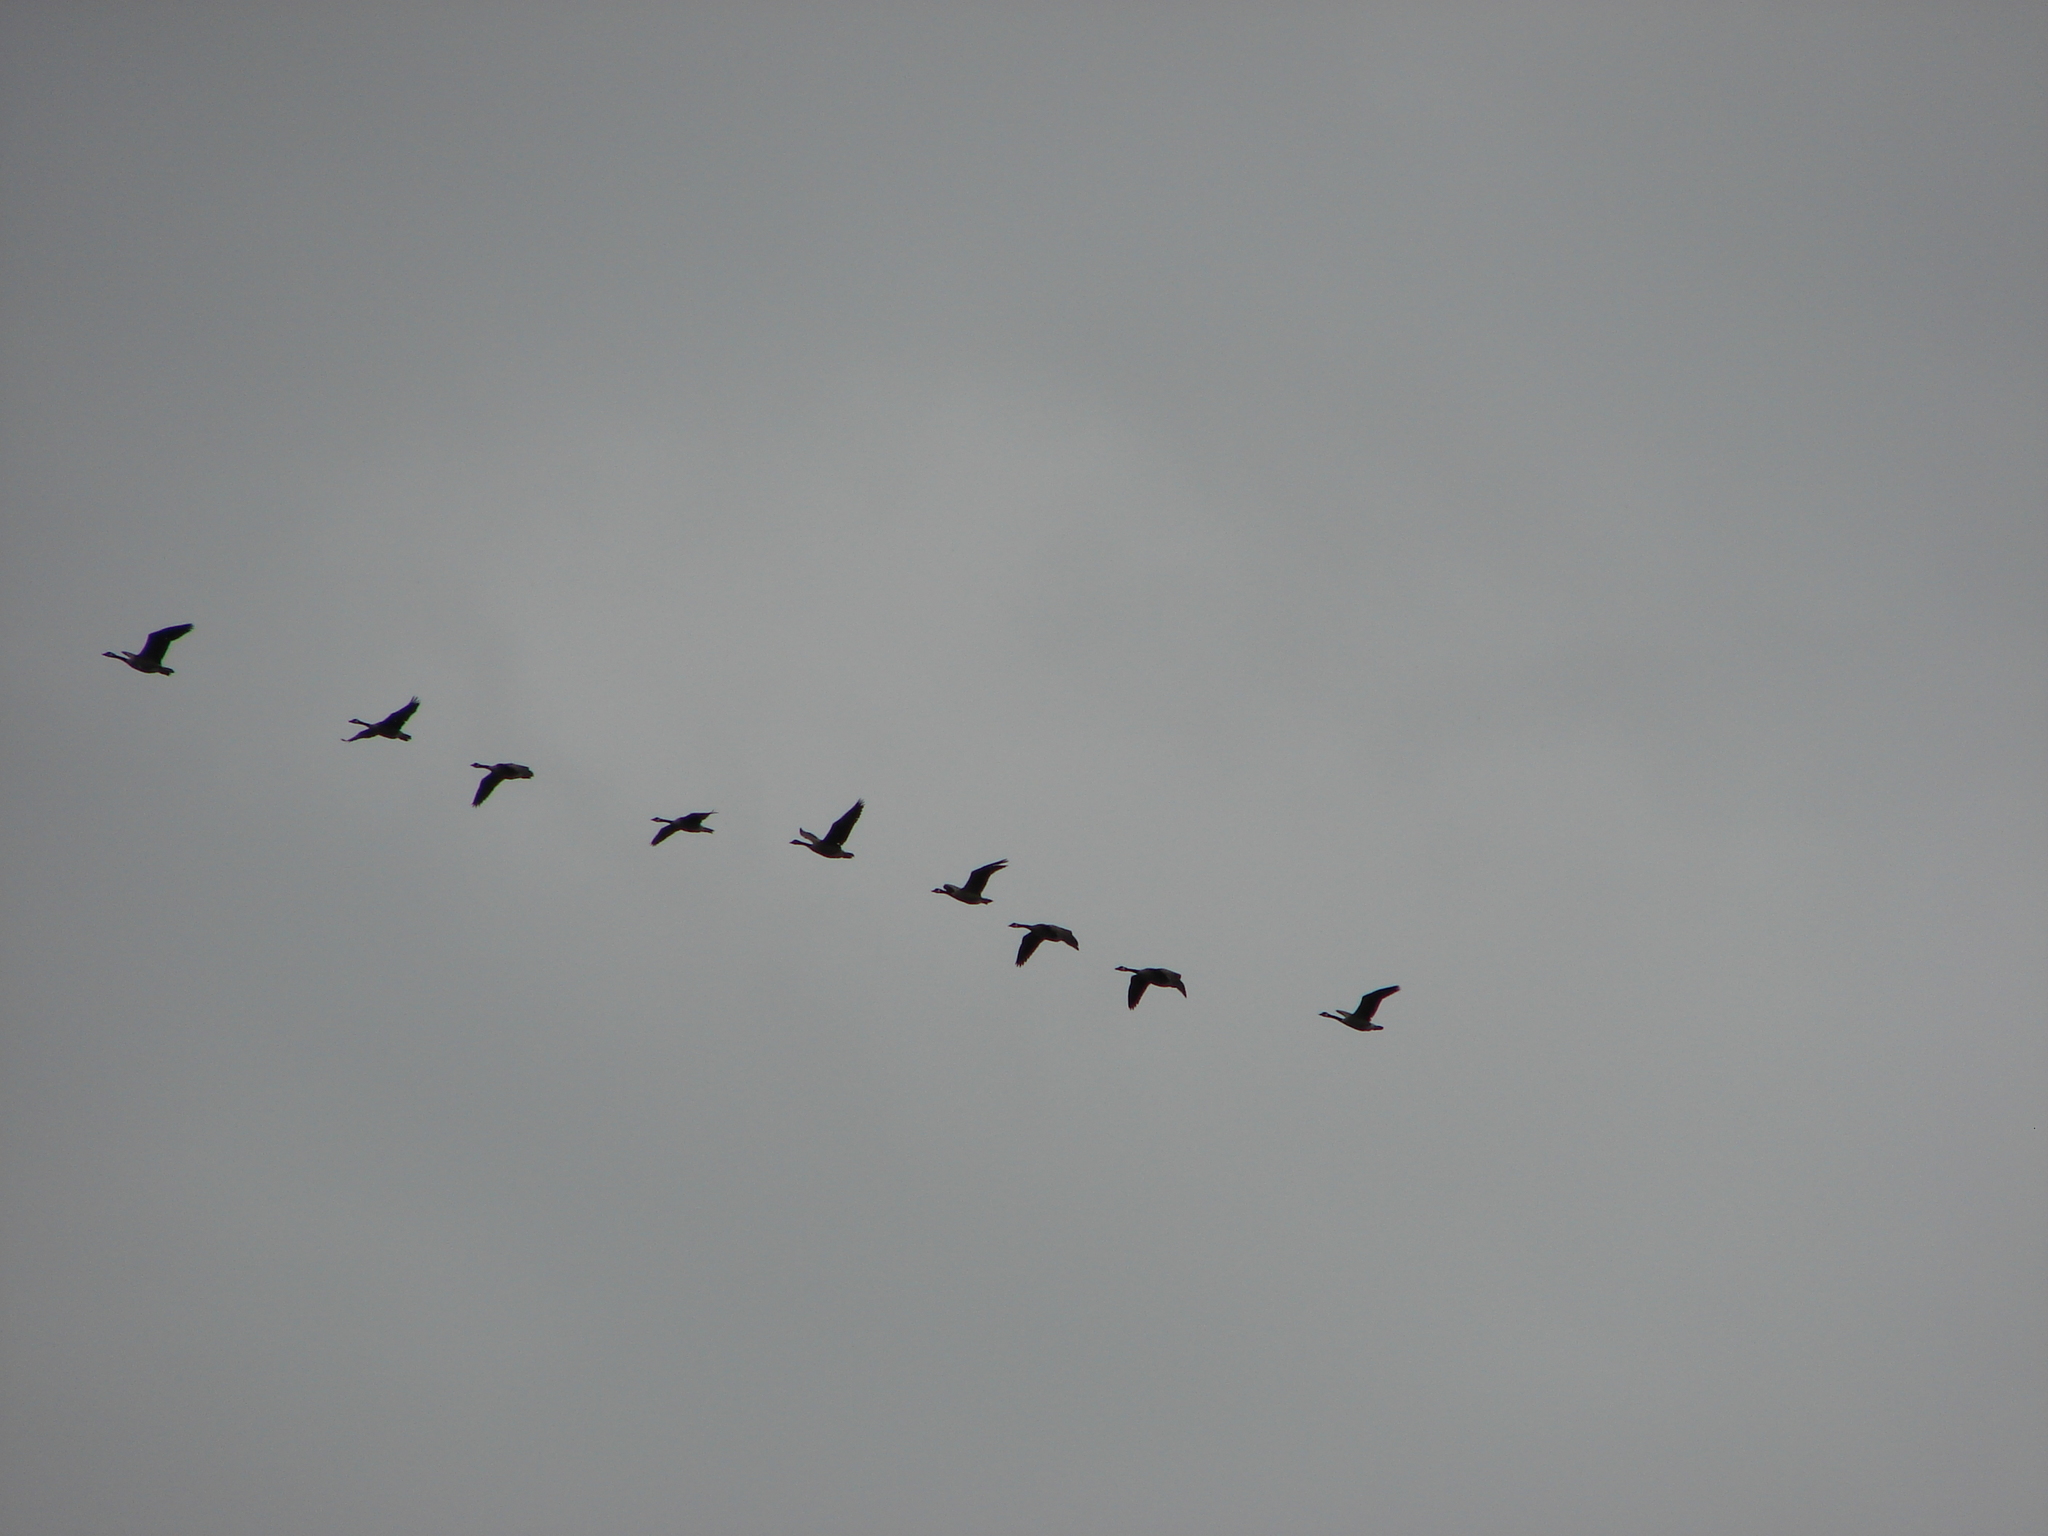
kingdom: Animalia
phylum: Chordata
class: Aves
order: Anseriformes
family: Anatidae
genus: Branta
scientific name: Branta canadensis
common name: Canada goose
